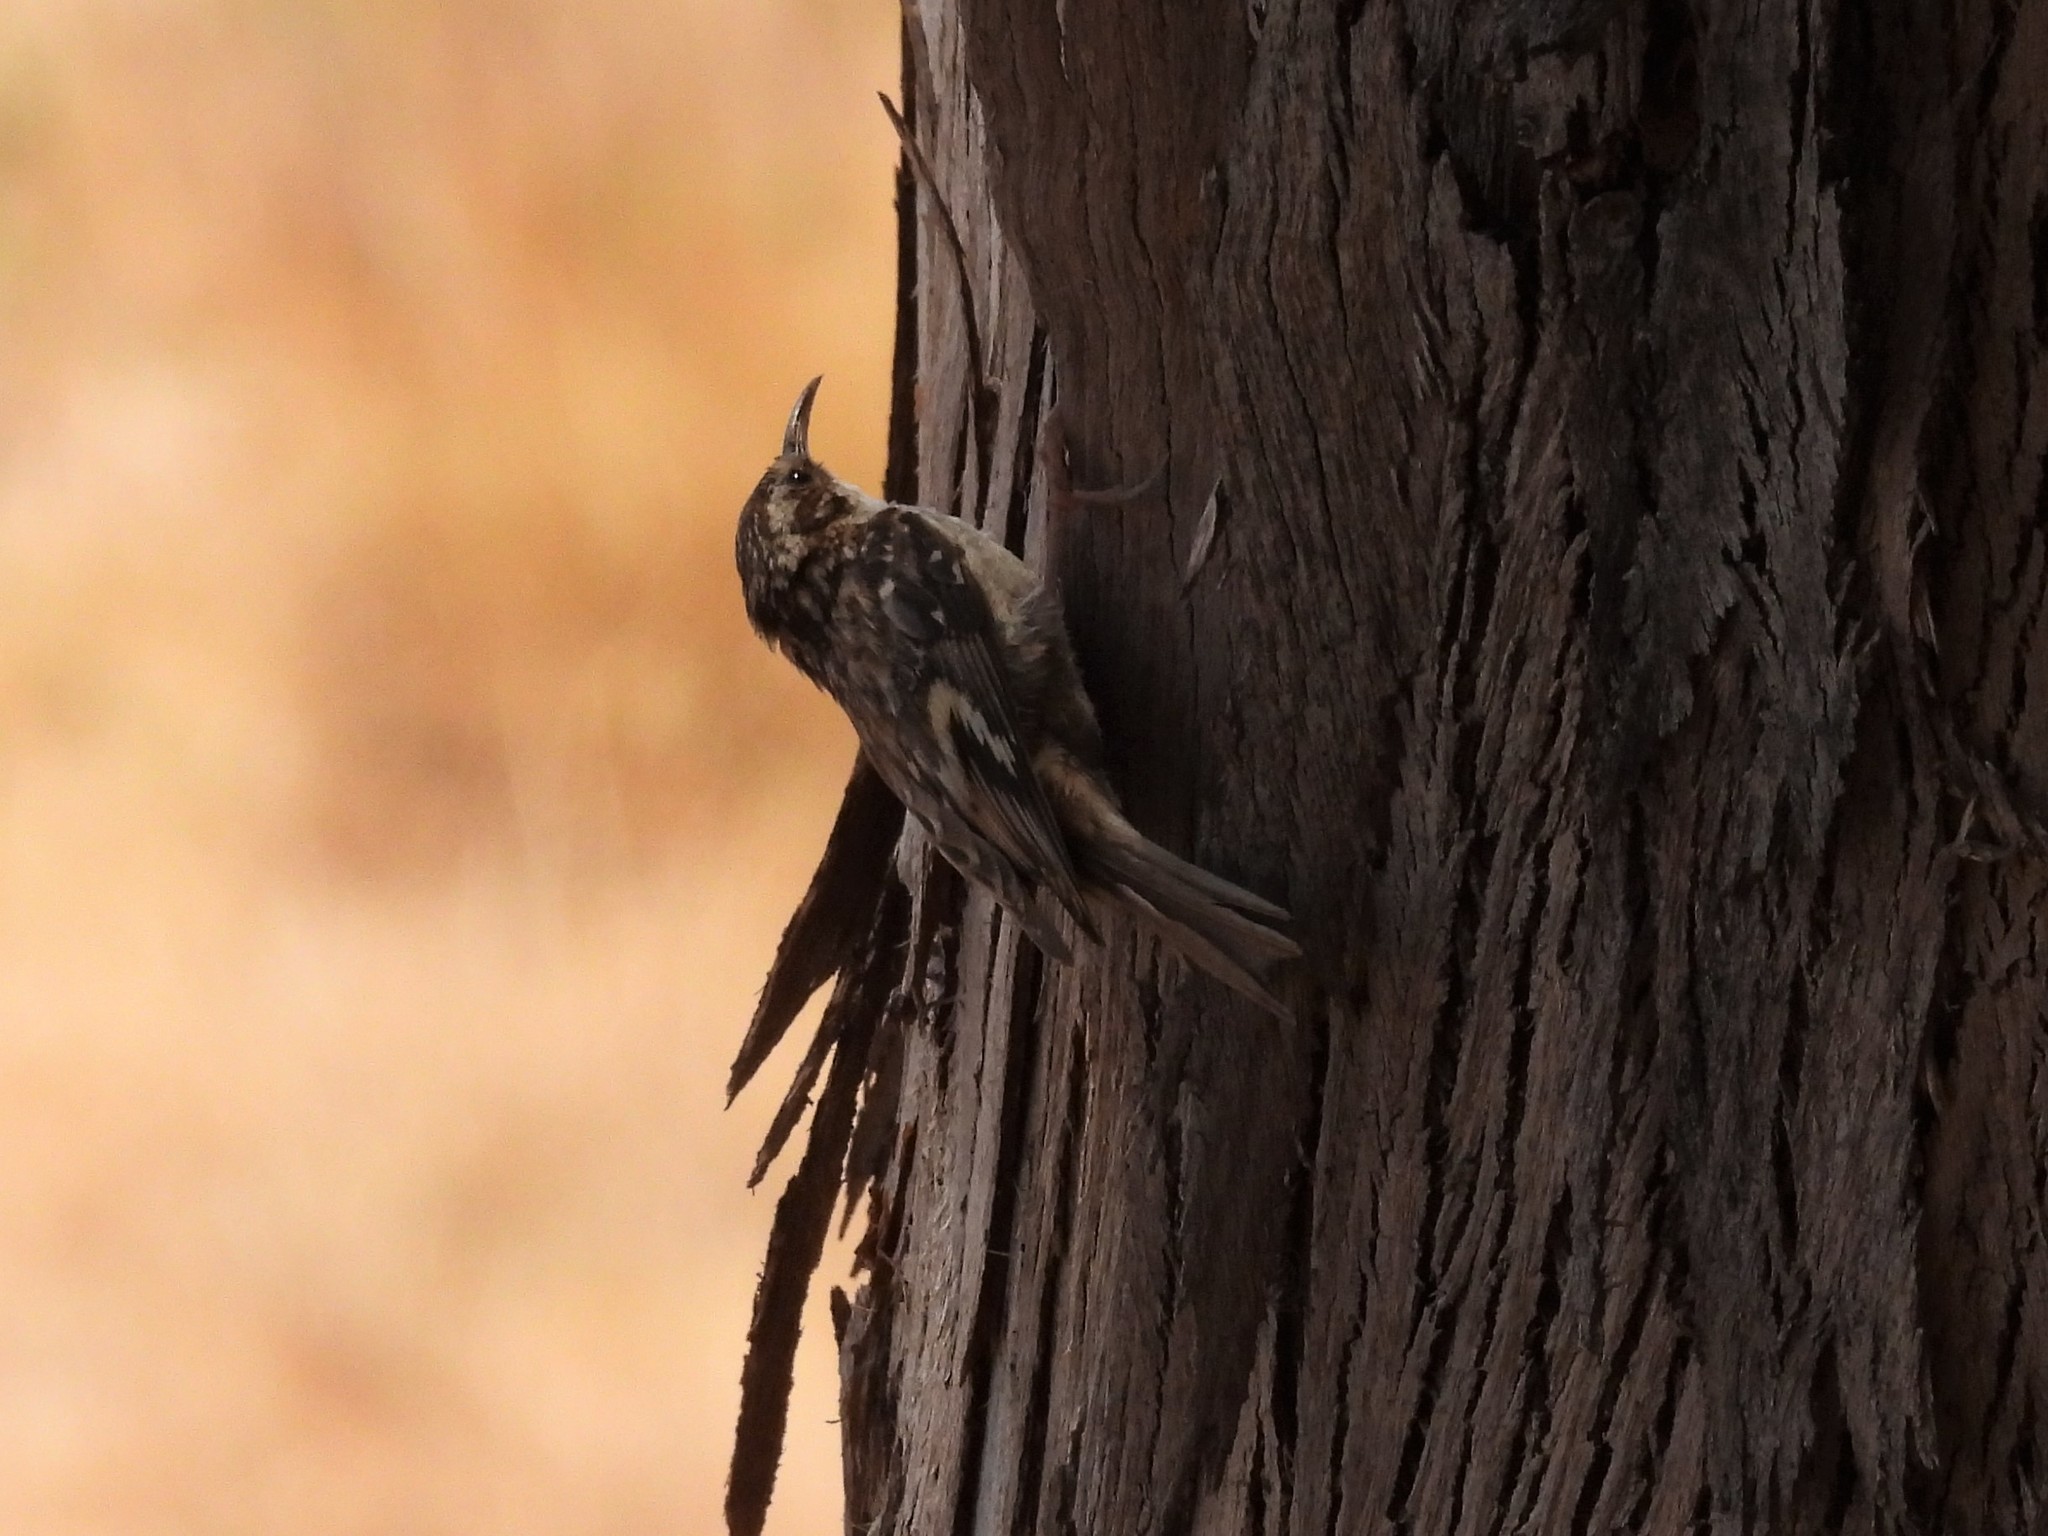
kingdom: Animalia
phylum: Chordata
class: Aves
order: Passeriformes
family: Certhiidae
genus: Certhia
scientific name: Certhia americana
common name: Brown creeper
